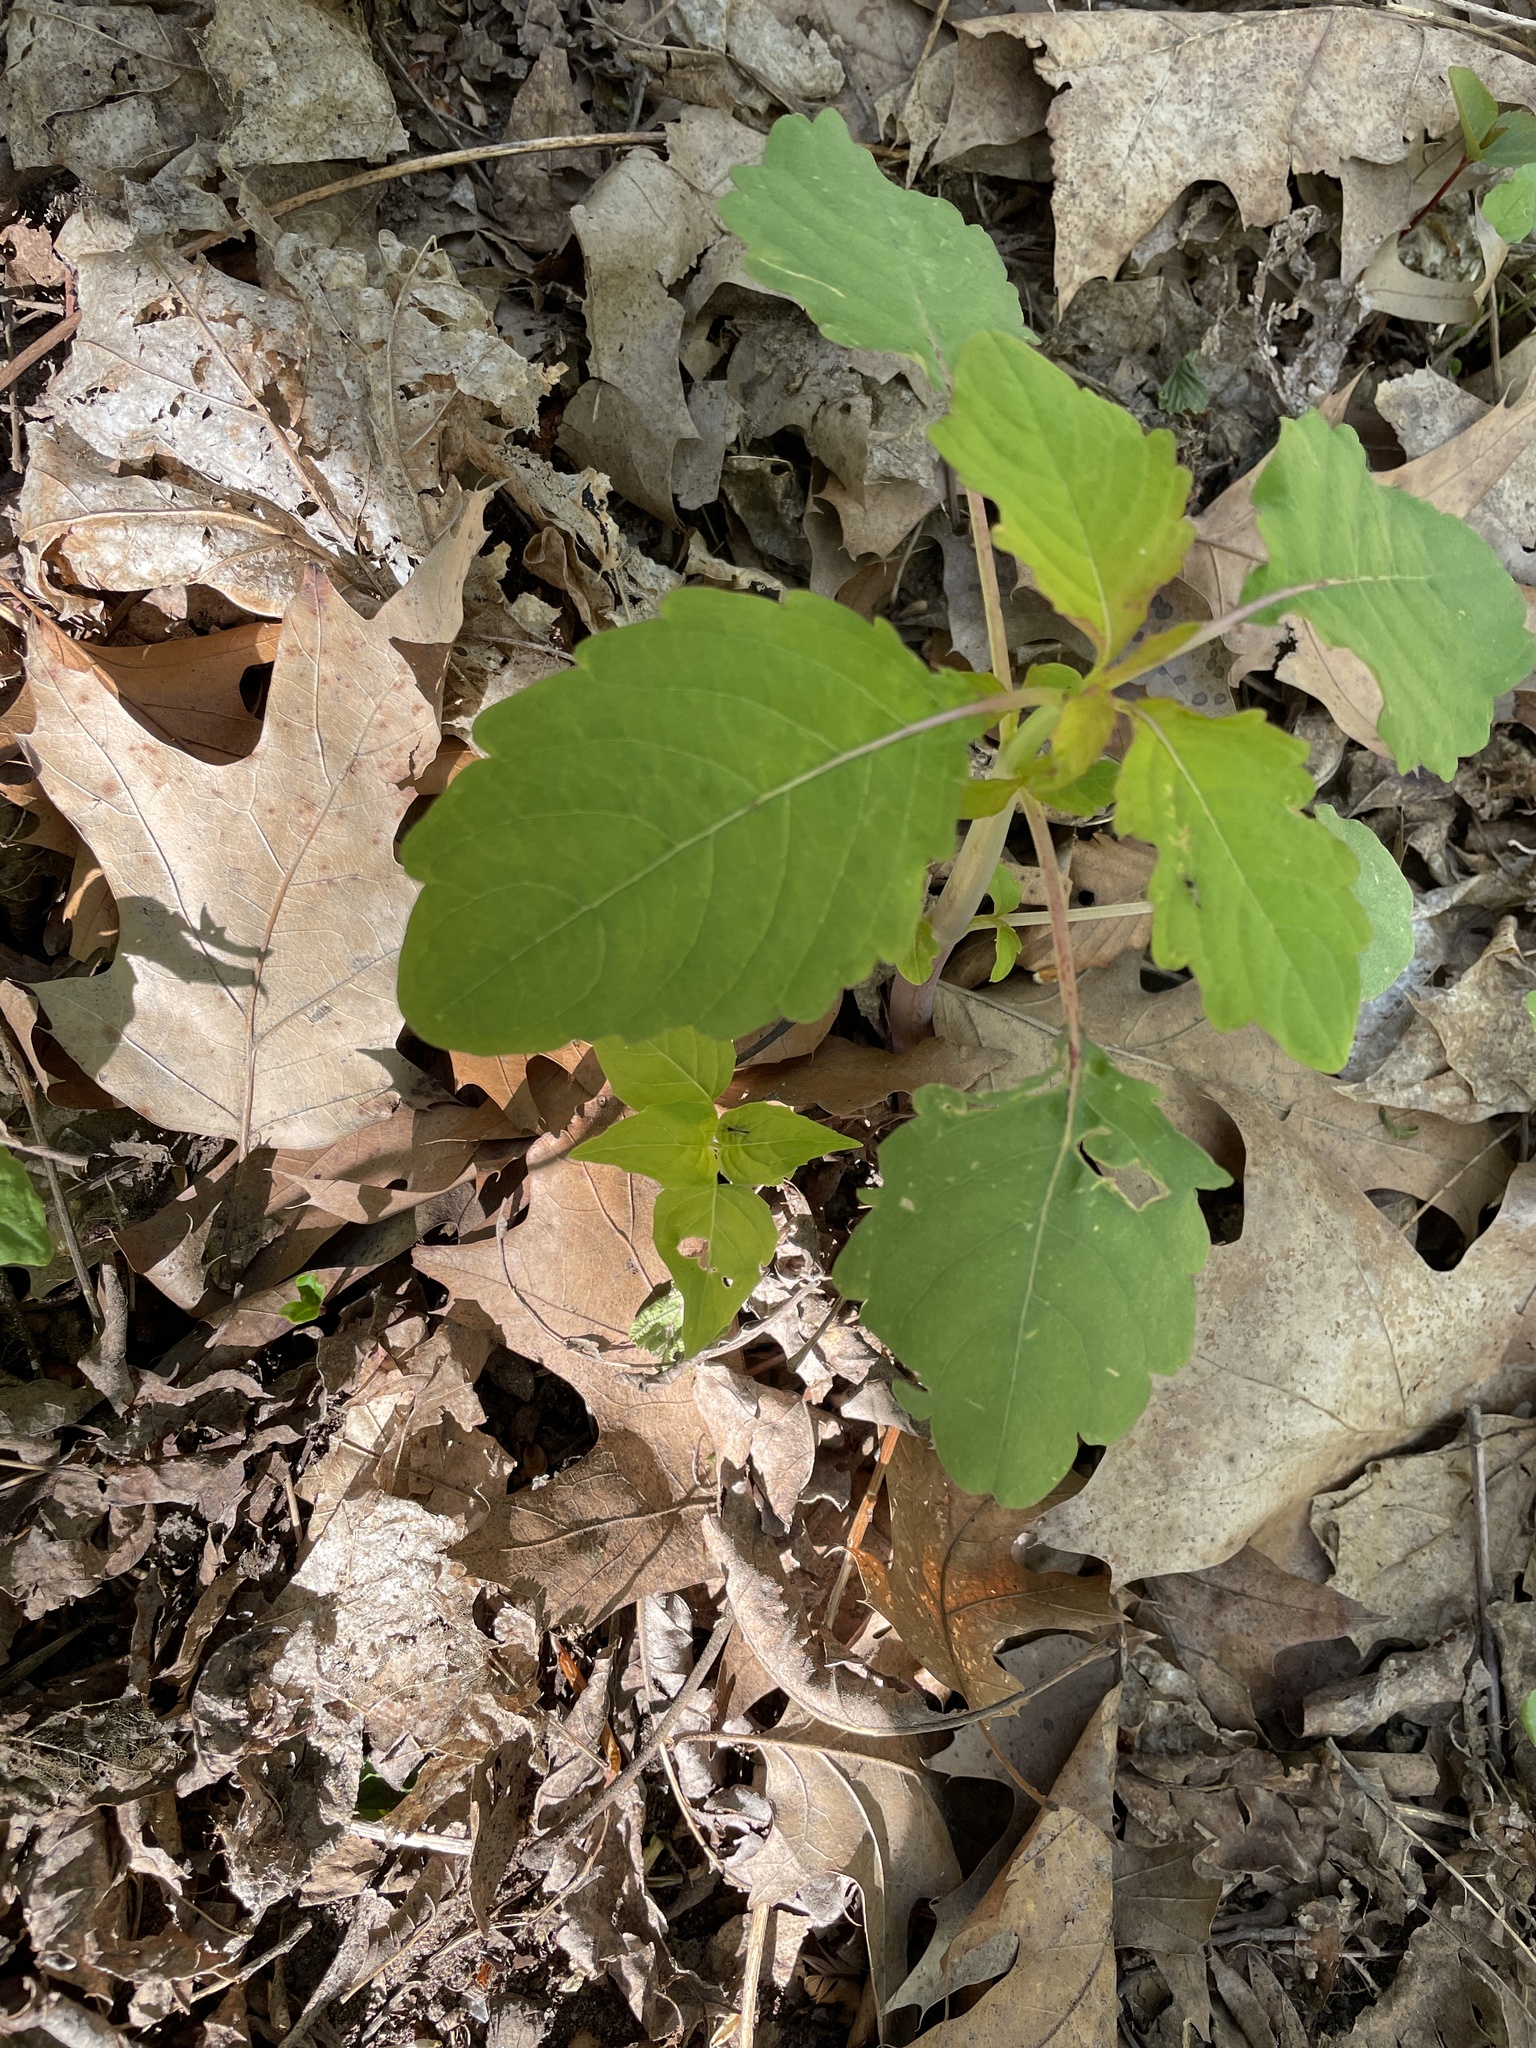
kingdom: Plantae
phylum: Tracheophyta
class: Magnoliopsida
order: Ericales
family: Balsaminaceae
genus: Impatiens
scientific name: Impatiens capensis
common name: Orange balsam
